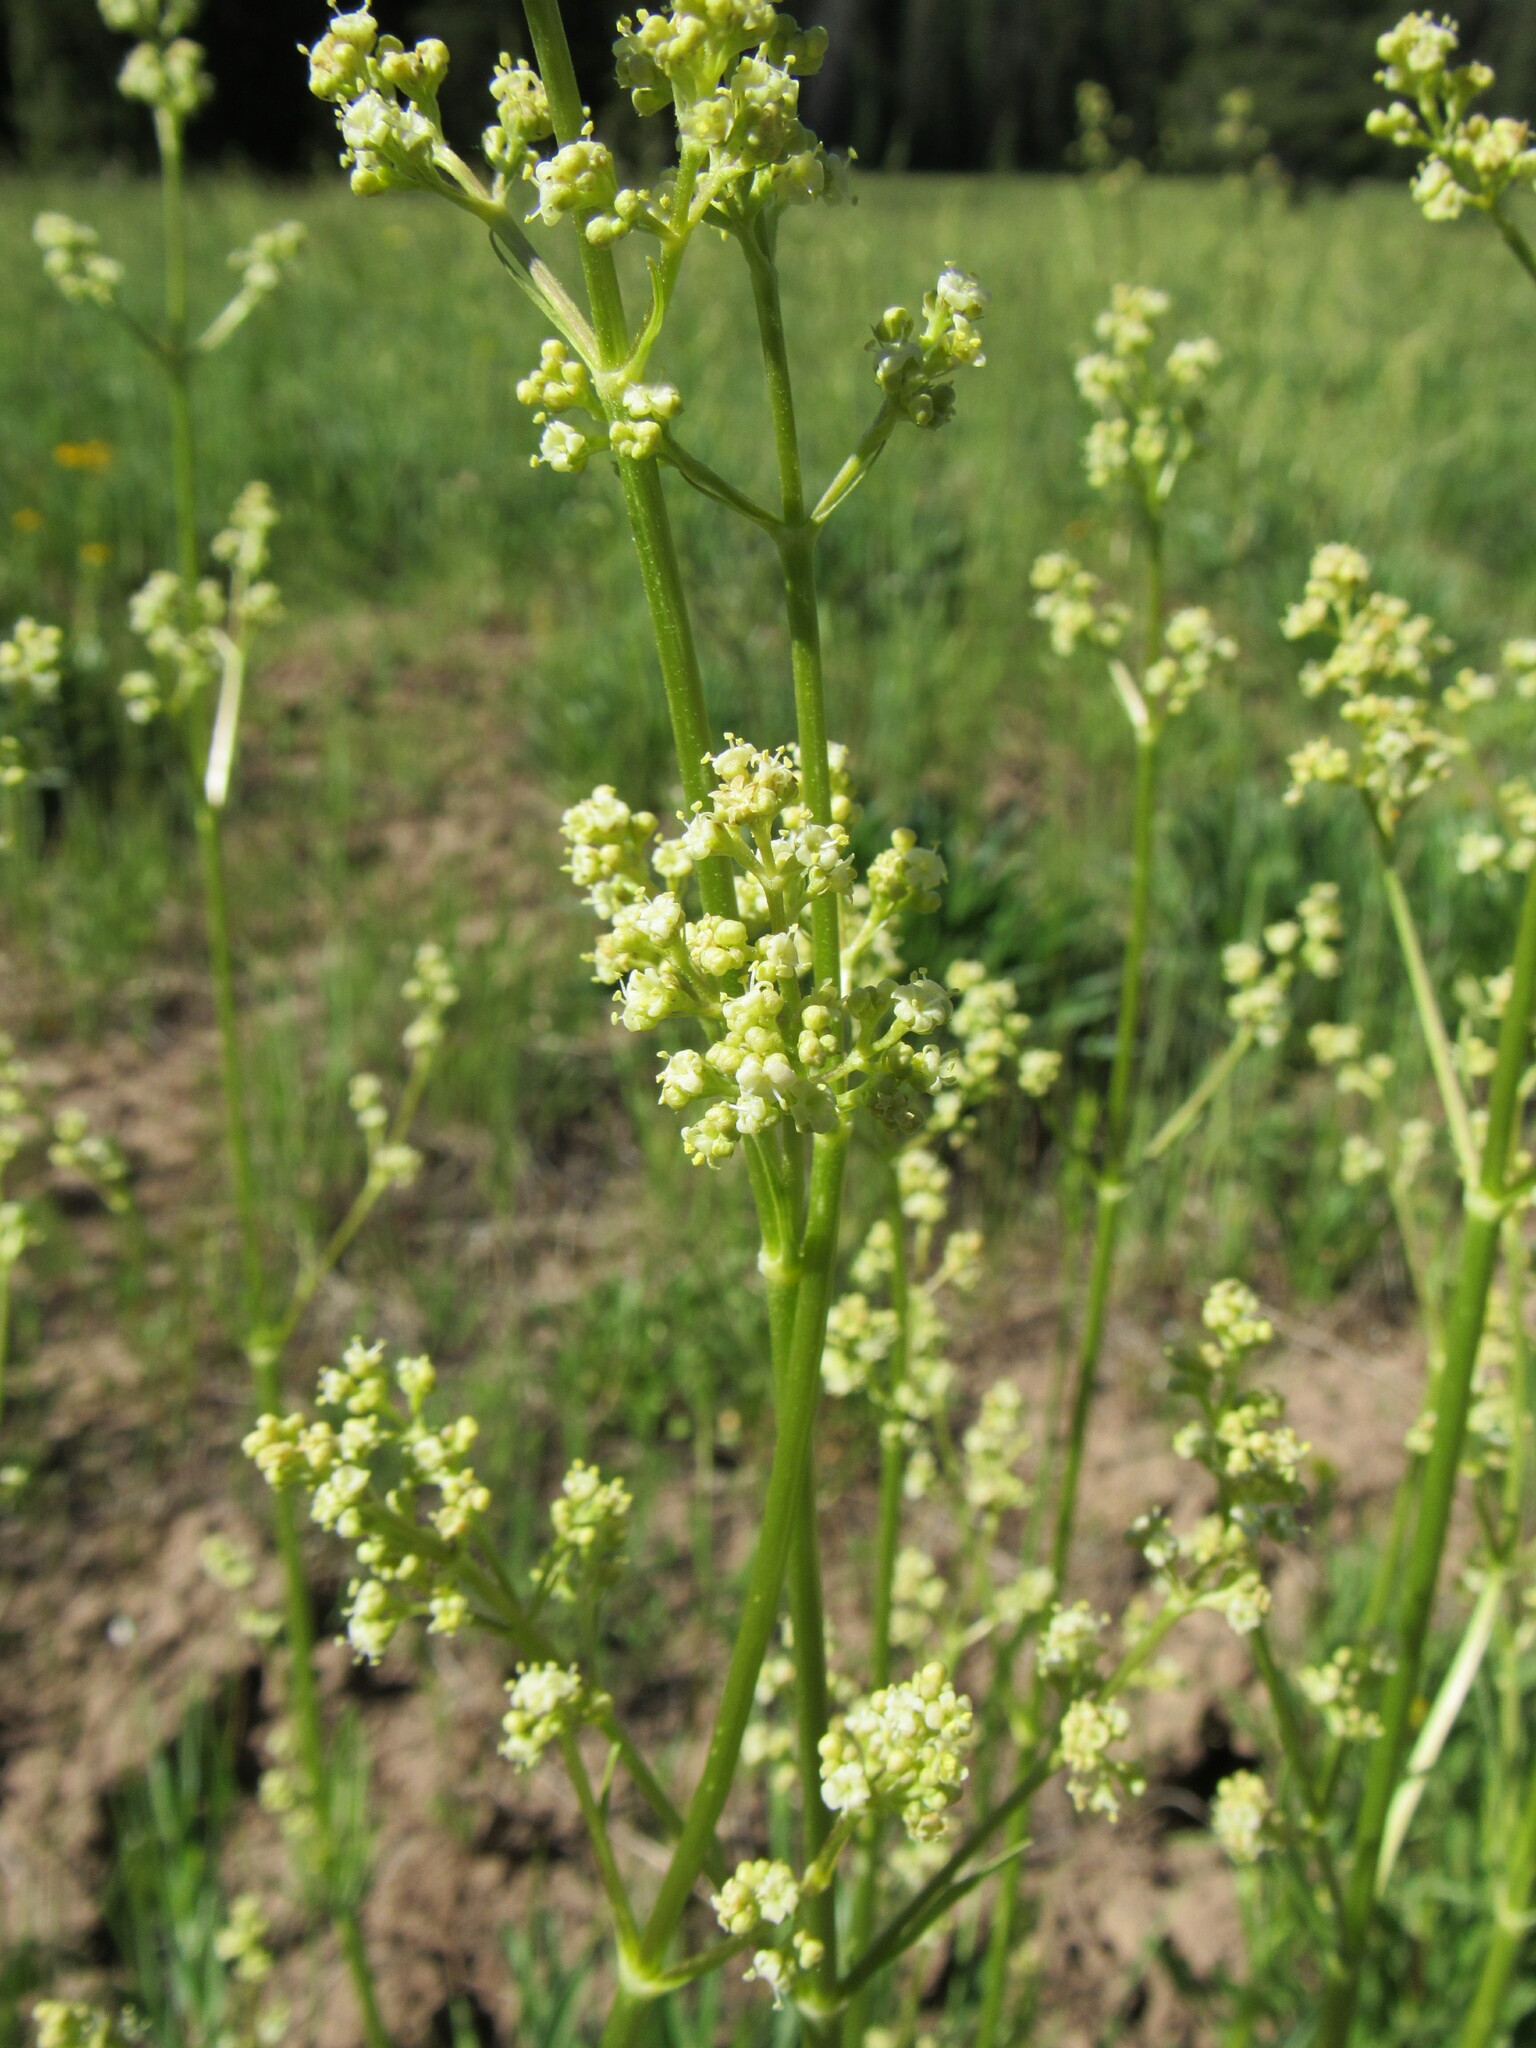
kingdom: Plantae
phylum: Tracheophyta
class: Magnoliopsida
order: Dipsacales
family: Caprifoliaceae
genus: Valeriana
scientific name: Valeriana edulis
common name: Taproot valerian
